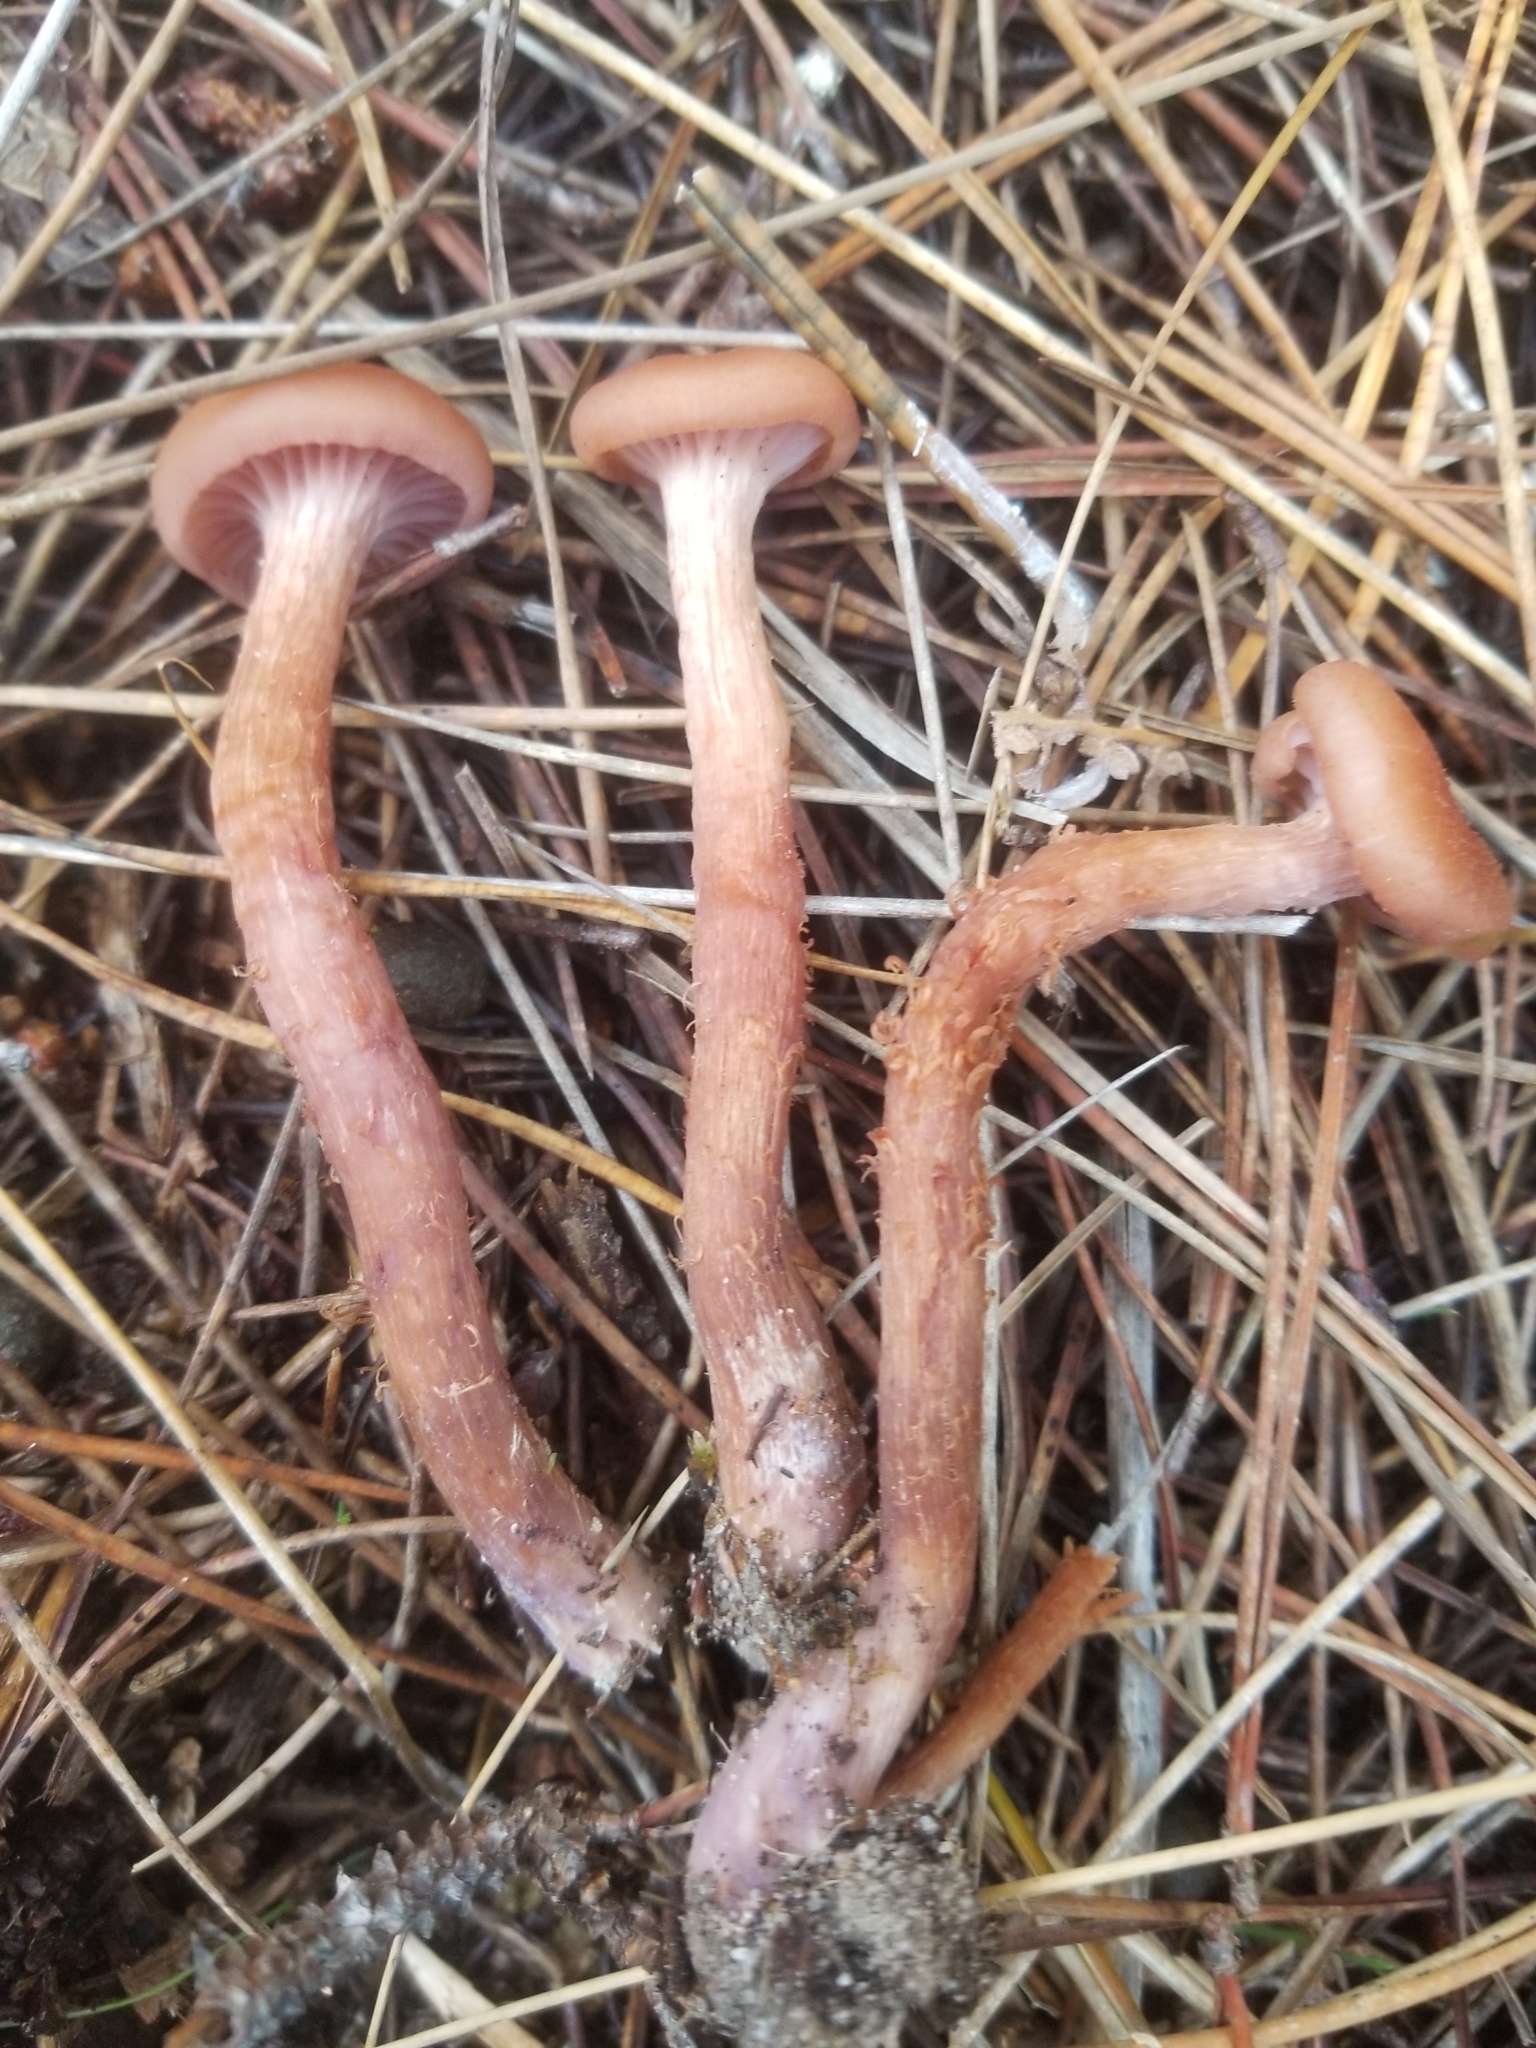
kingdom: Fungi
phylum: Basidiomycota
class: Agaricomycetes
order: Agaricales
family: Hydnangiaceae
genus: Laccaria
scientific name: Laccaria amethysteo-occidentalis
